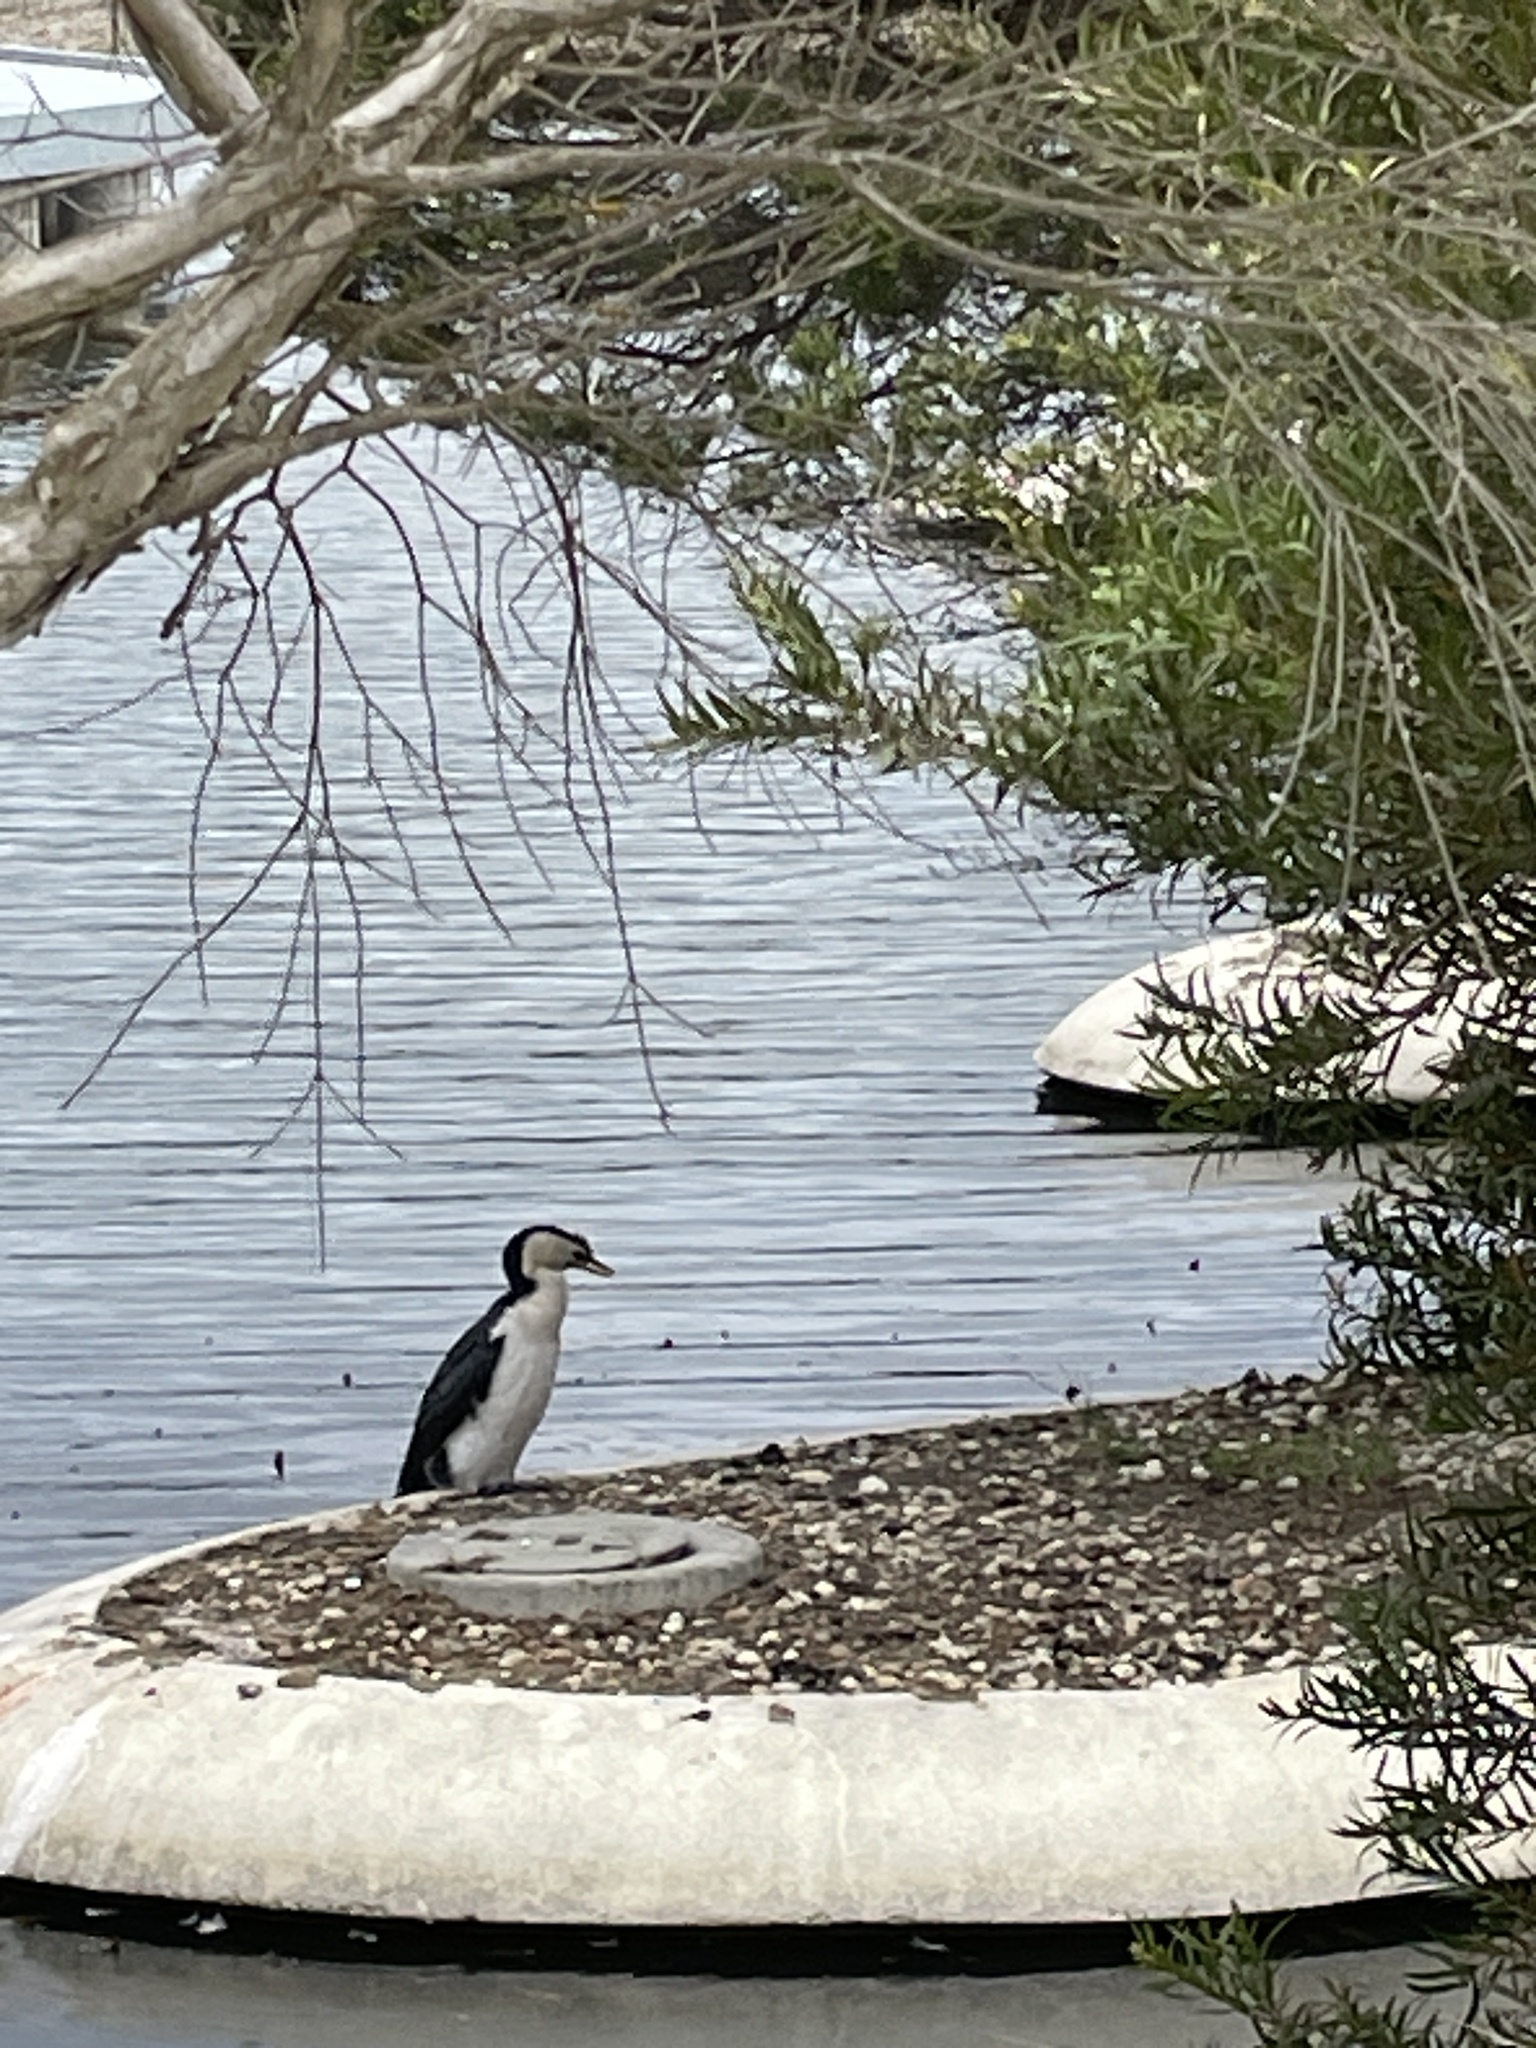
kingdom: Animalia
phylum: Chordata
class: Aves
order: Suliformes
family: Phalacrocoracidae
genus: Microcarbo
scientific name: Microcarbo melanoleucos
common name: Little pied cormorant
